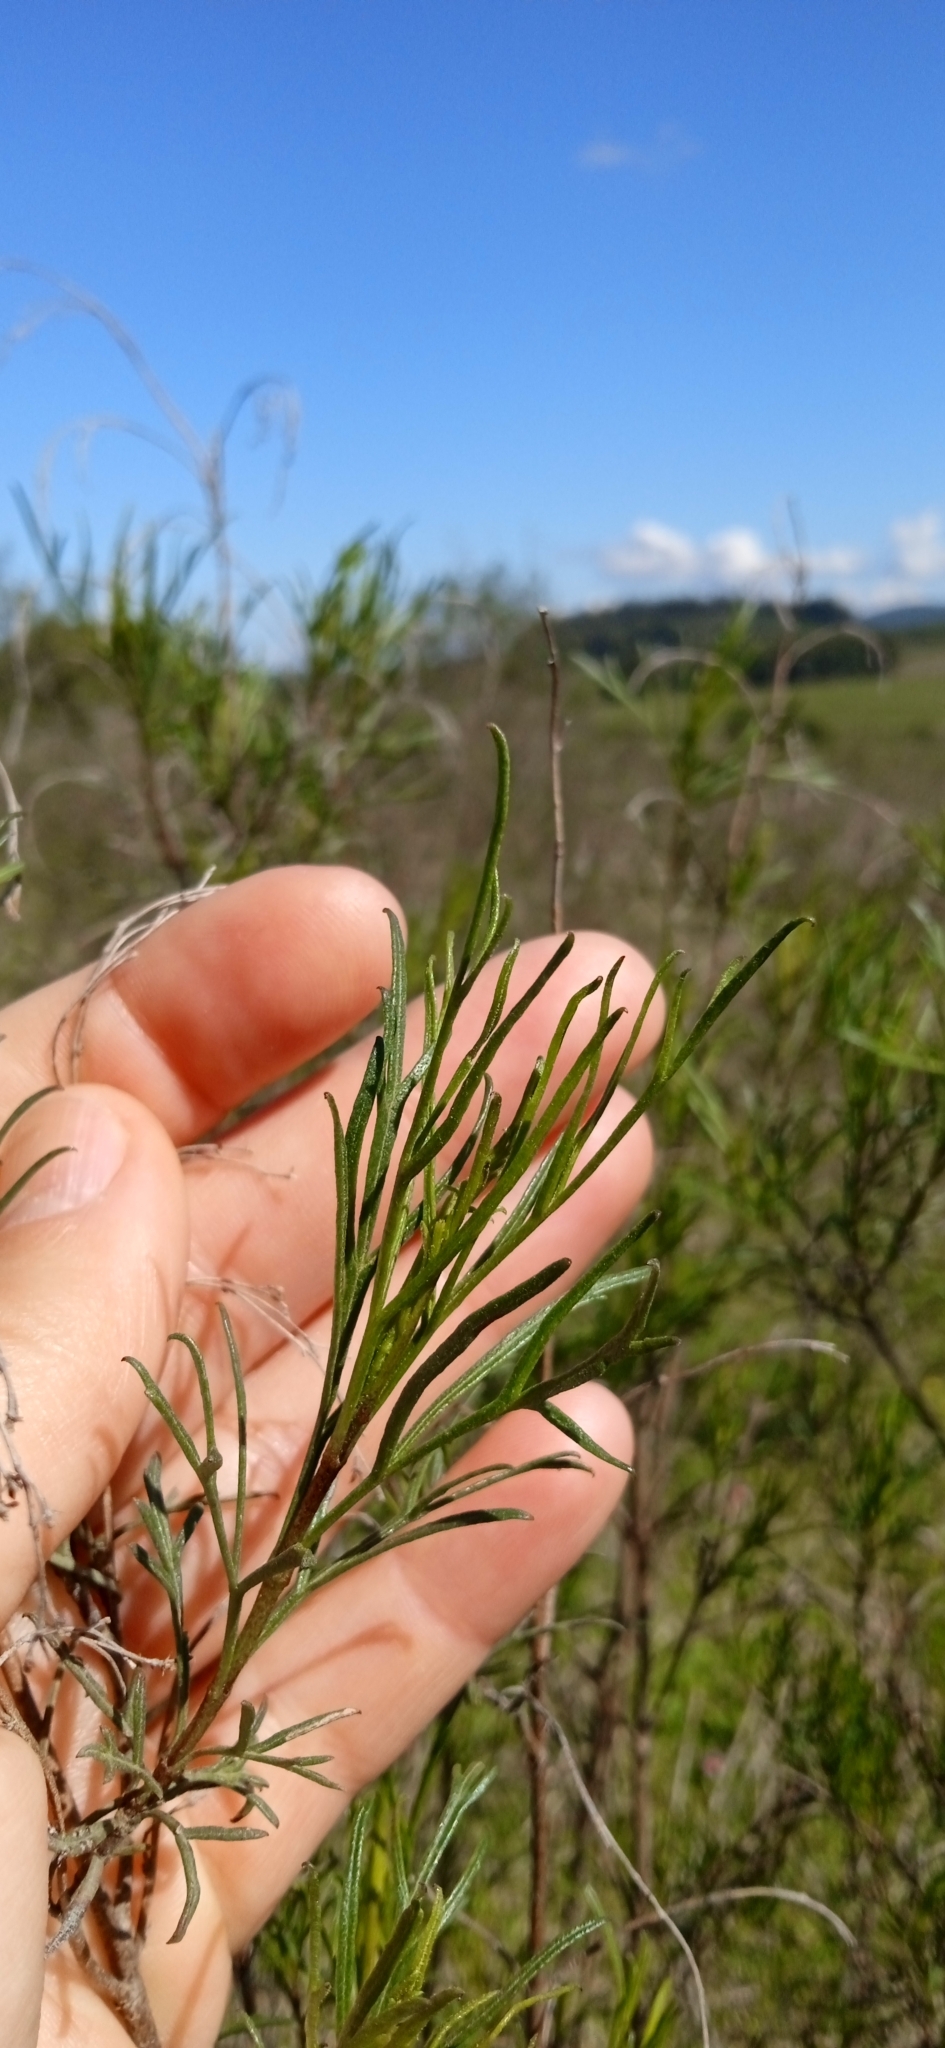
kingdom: Plantae
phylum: Tracheophyta
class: Magnoliopsida
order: Asterales
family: Asteraceae
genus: Acanthostyles
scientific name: Acanthostyles buniifolius
